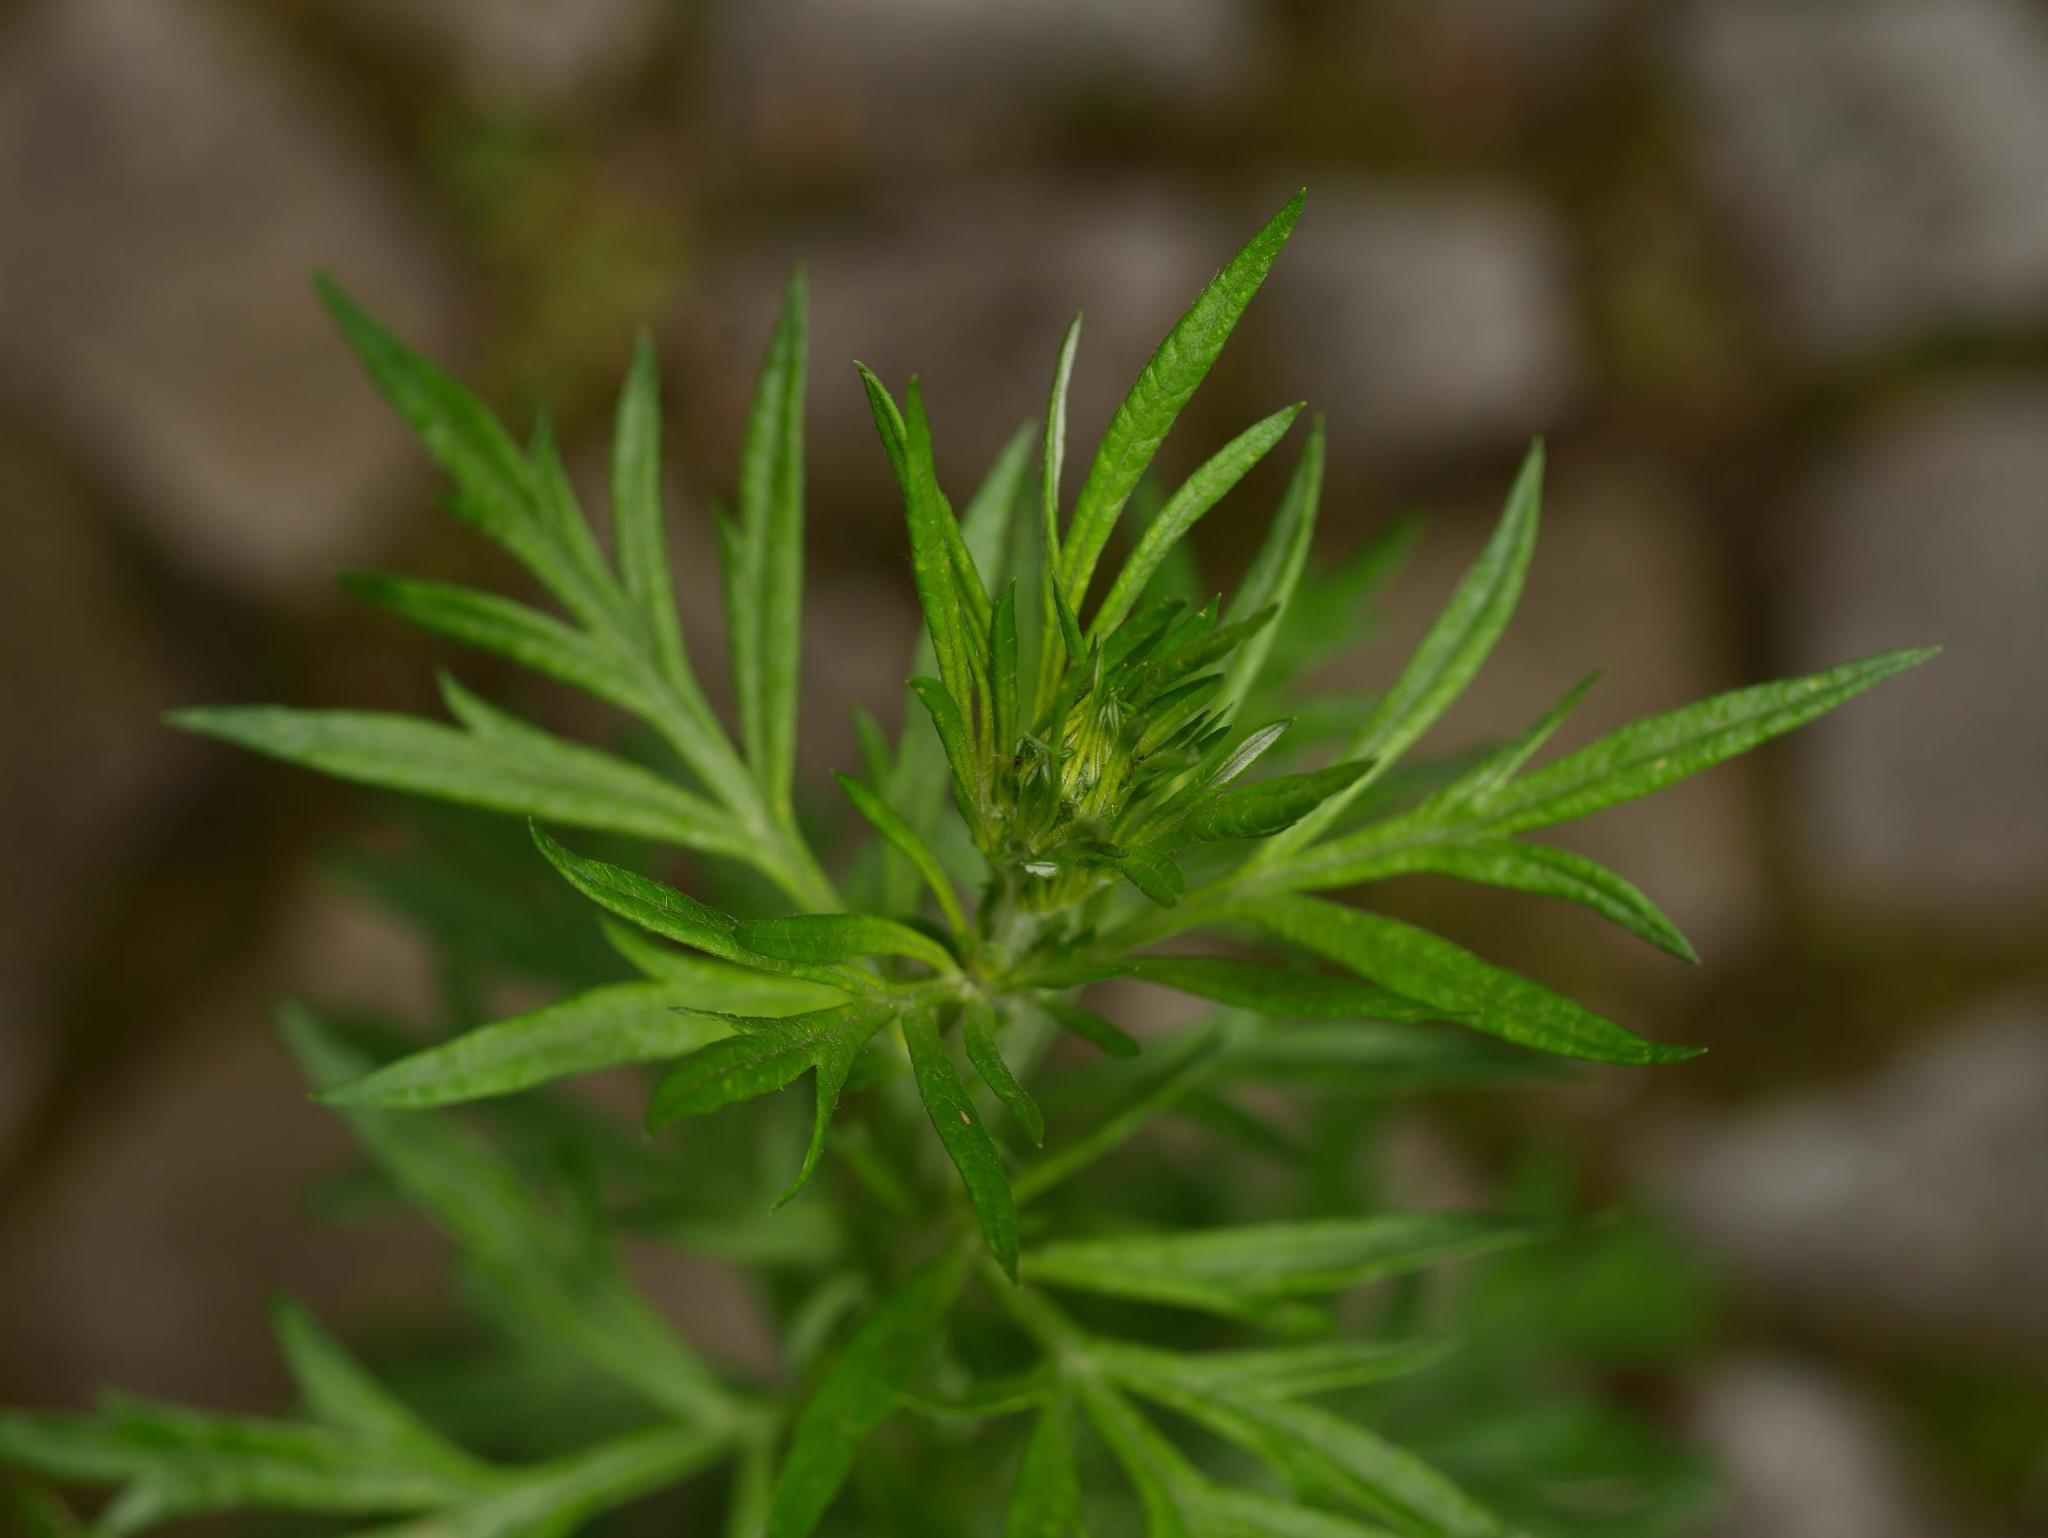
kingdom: Plantae
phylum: Tracheophyta
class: Magnoliopsida
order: Asterales
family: Asteraceae
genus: Artemisia
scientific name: Artemisia vulgaris
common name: Mugwort
